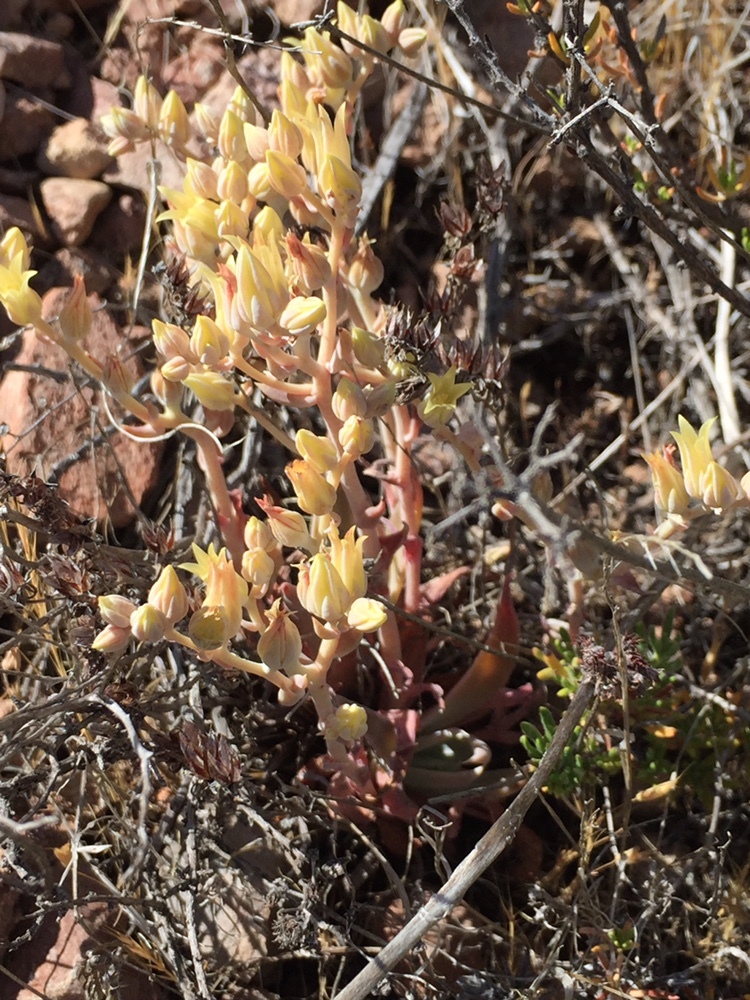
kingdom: Plantae
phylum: Tracheophyta
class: Magnoliopsida
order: Saxifragales
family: Crassulaceae
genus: Dudleya
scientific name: Dudleya cymosa
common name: Canyon dudleya
